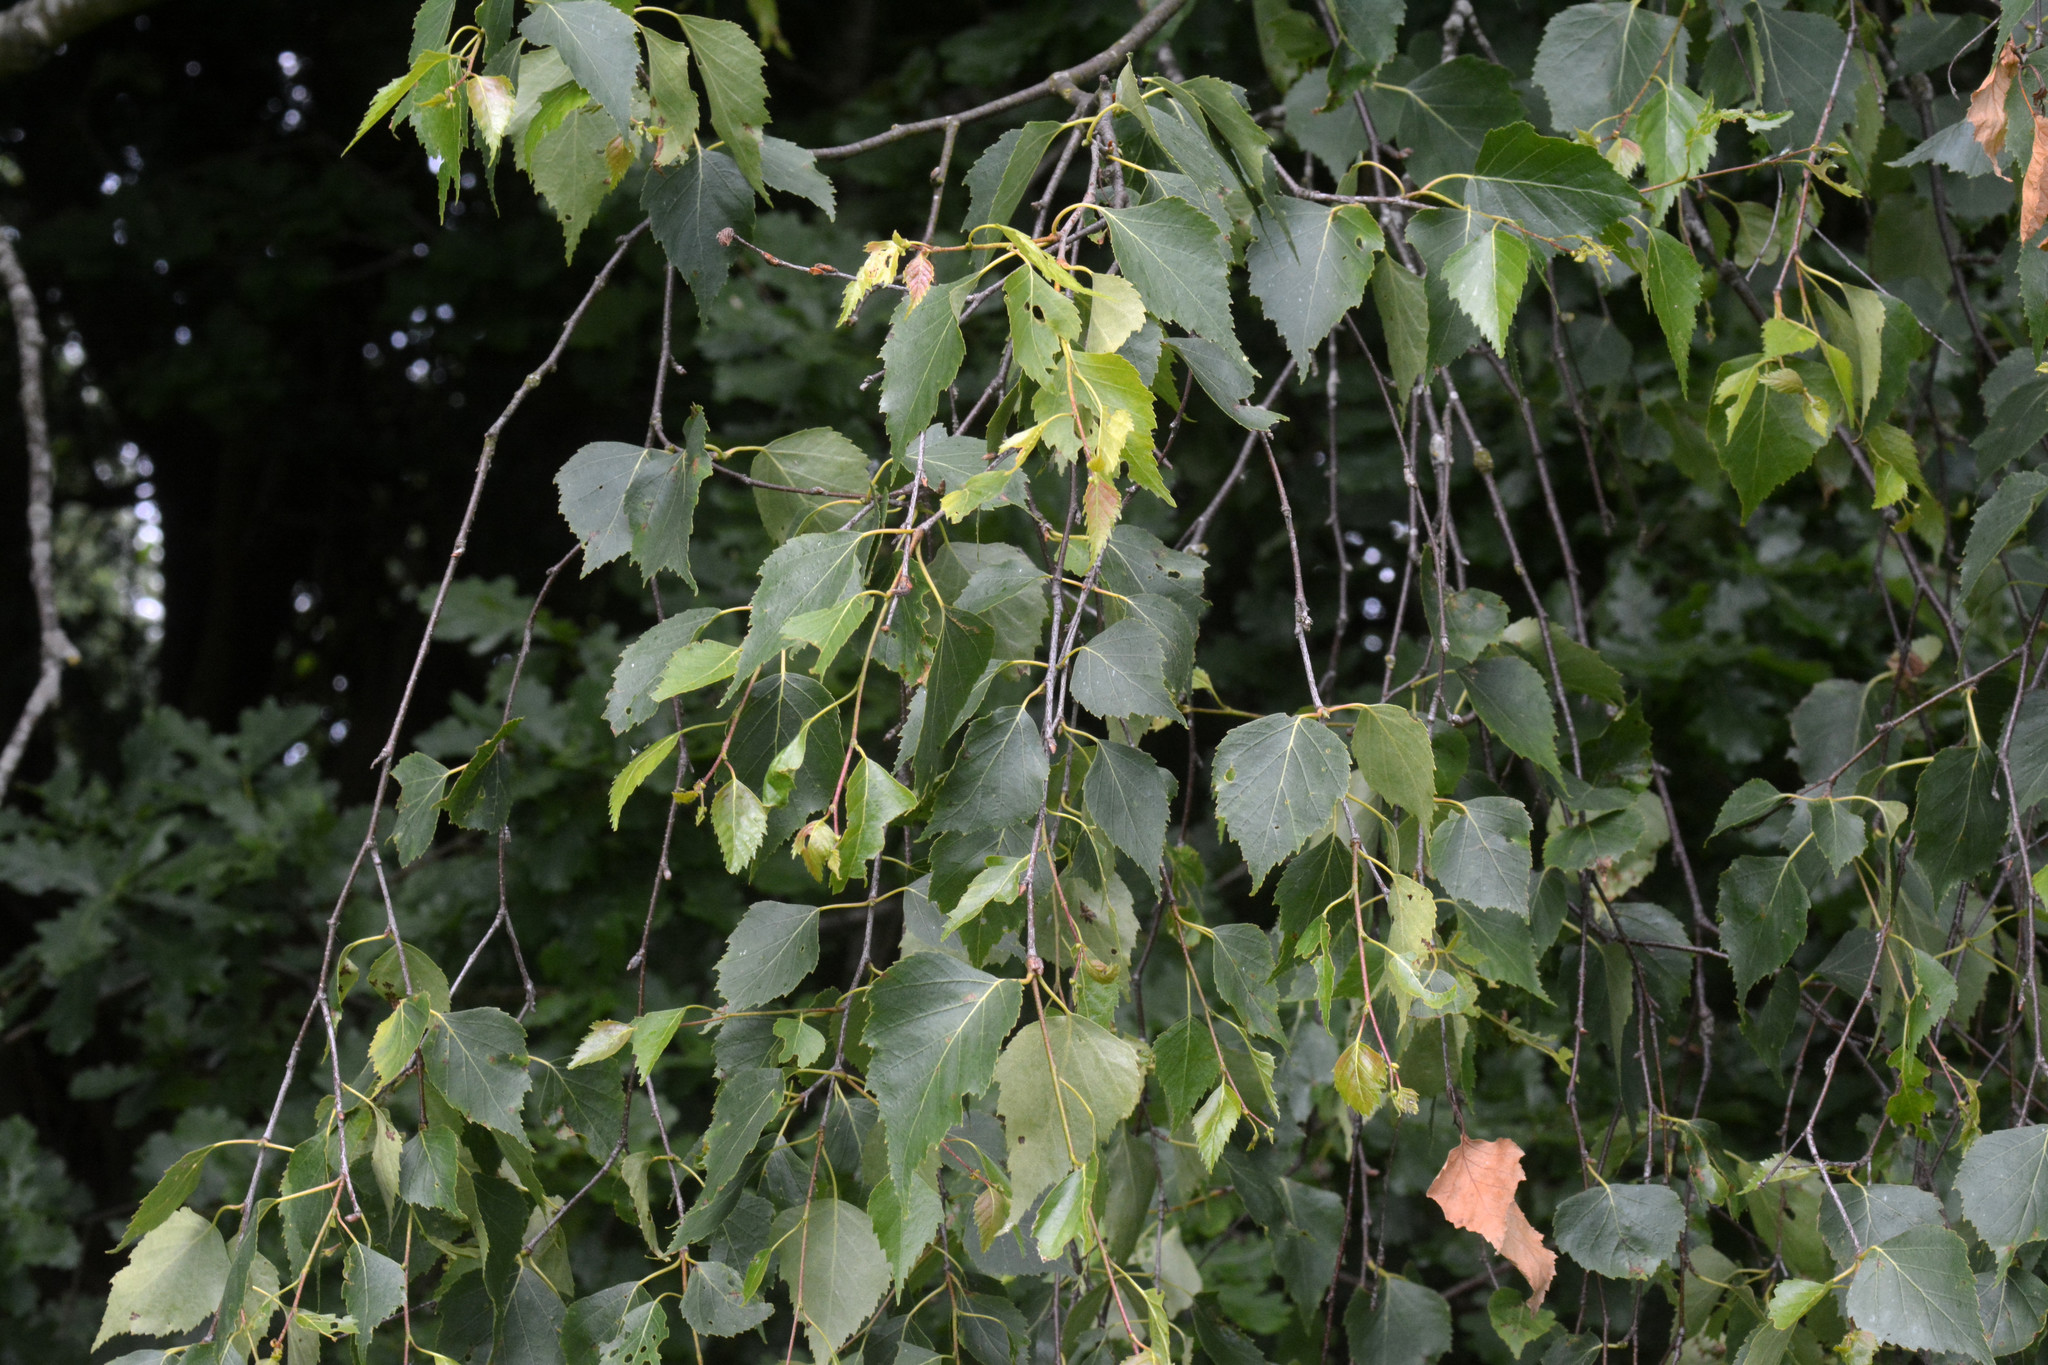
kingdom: Plantae
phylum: Tracheophyta
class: Magnoliopsida
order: Fagales
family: Betulaceae
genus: Betula
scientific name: Betula pendula
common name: Silver birch
